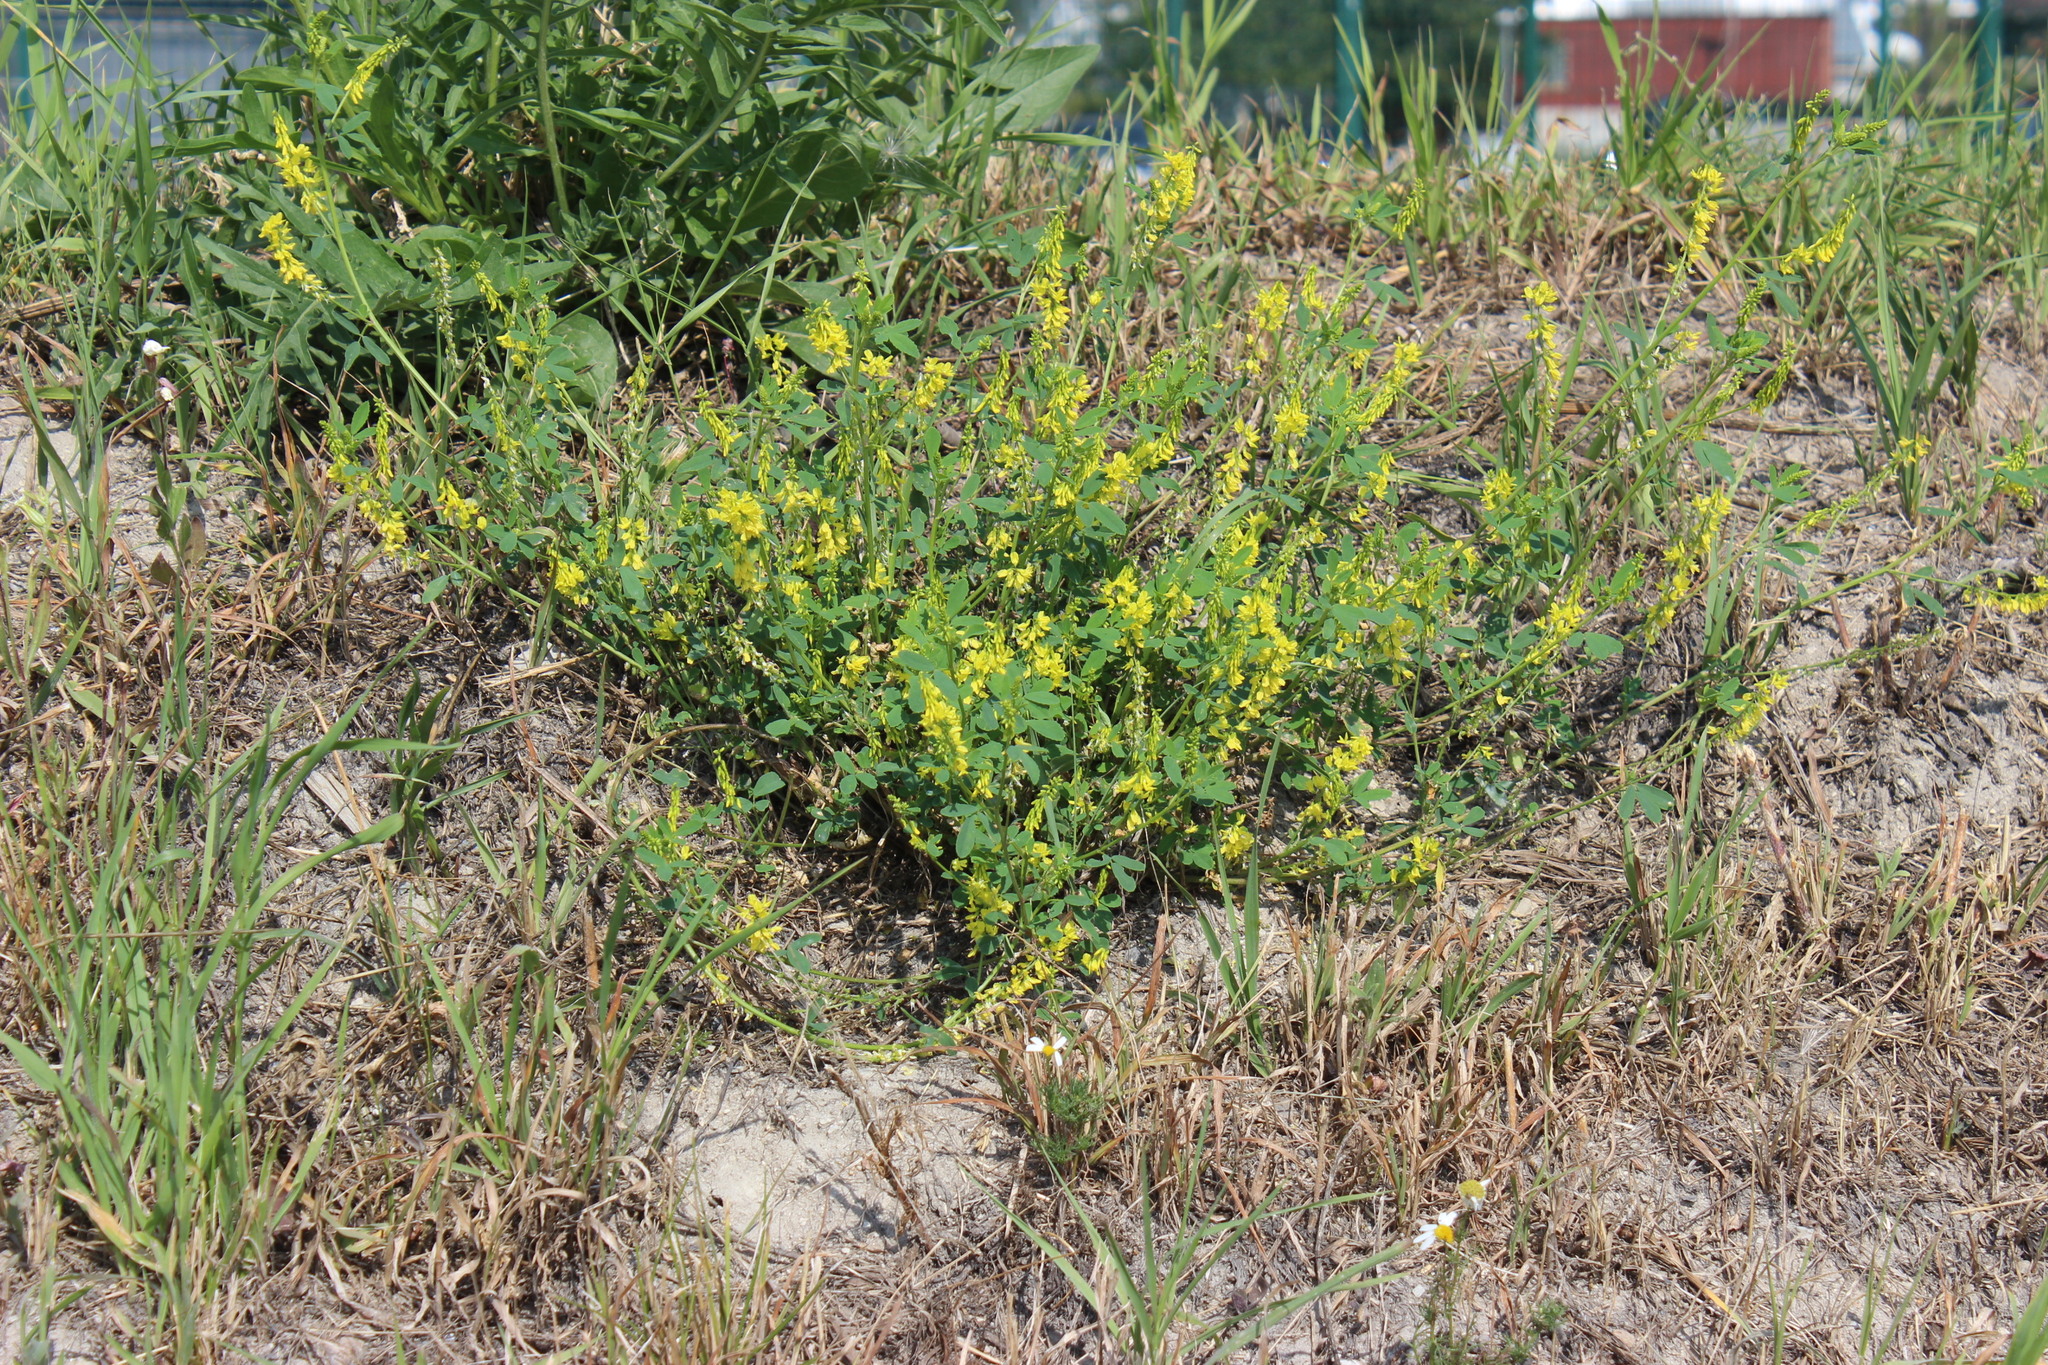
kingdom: Plantae
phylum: Tracheophyta
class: Magnoliopsida
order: Fabales
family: Fabaceae
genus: Melilotus
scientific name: Melilotus officinalis
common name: Sweetclover
